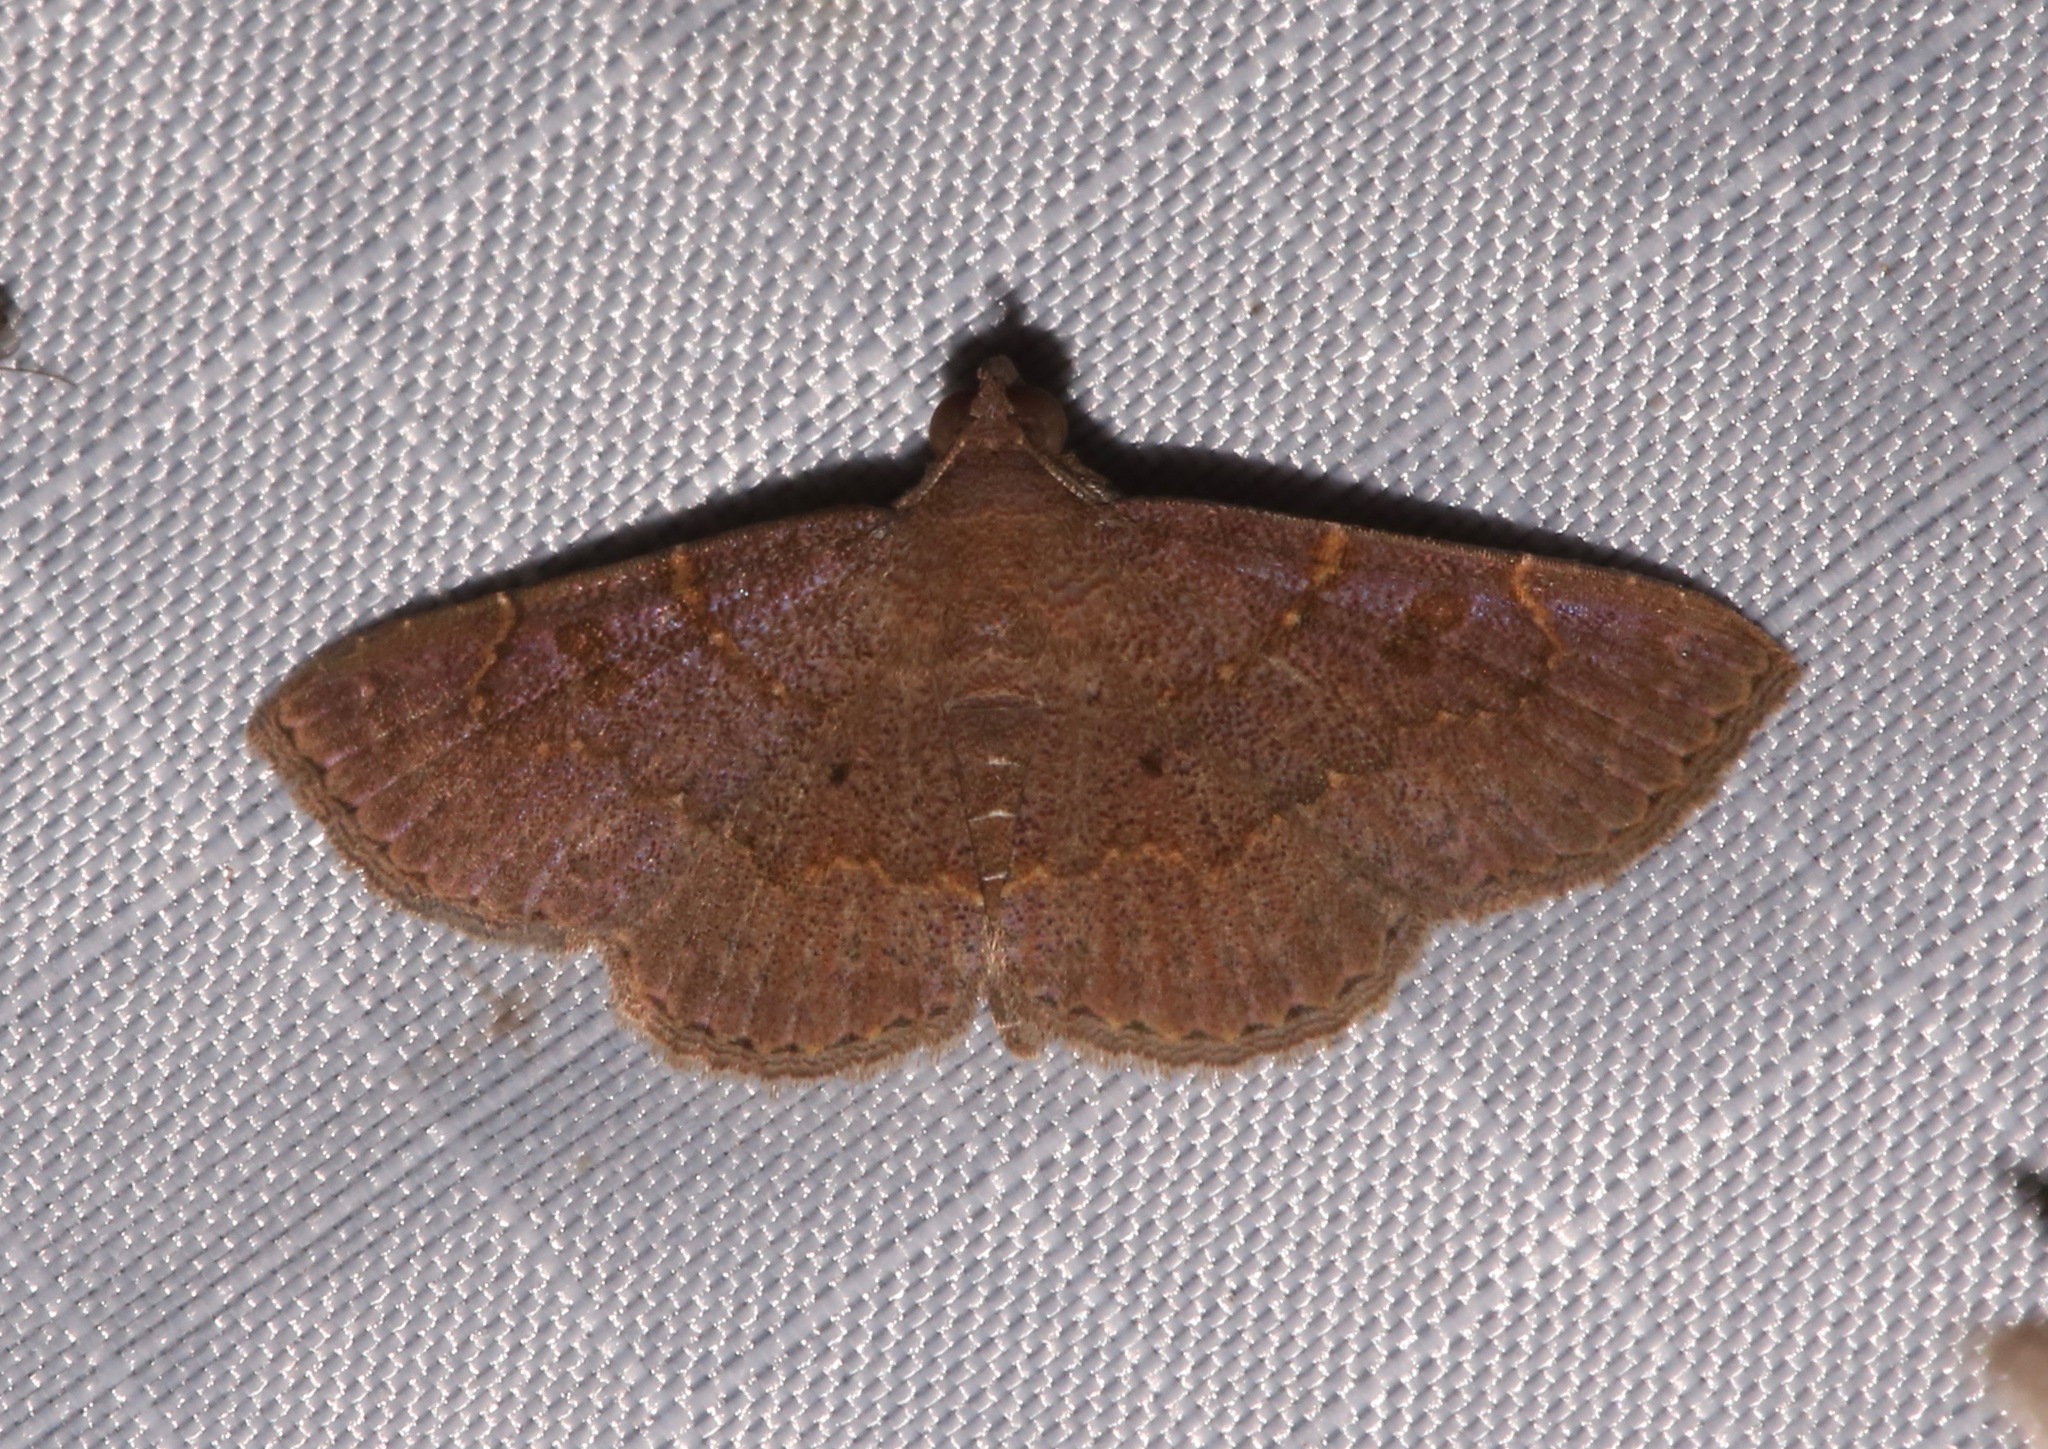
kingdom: Animalia
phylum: Arthropoda
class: Insecta
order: Lepidoptera
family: Erebidae
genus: Antiblemma
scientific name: Antiblemma perva
